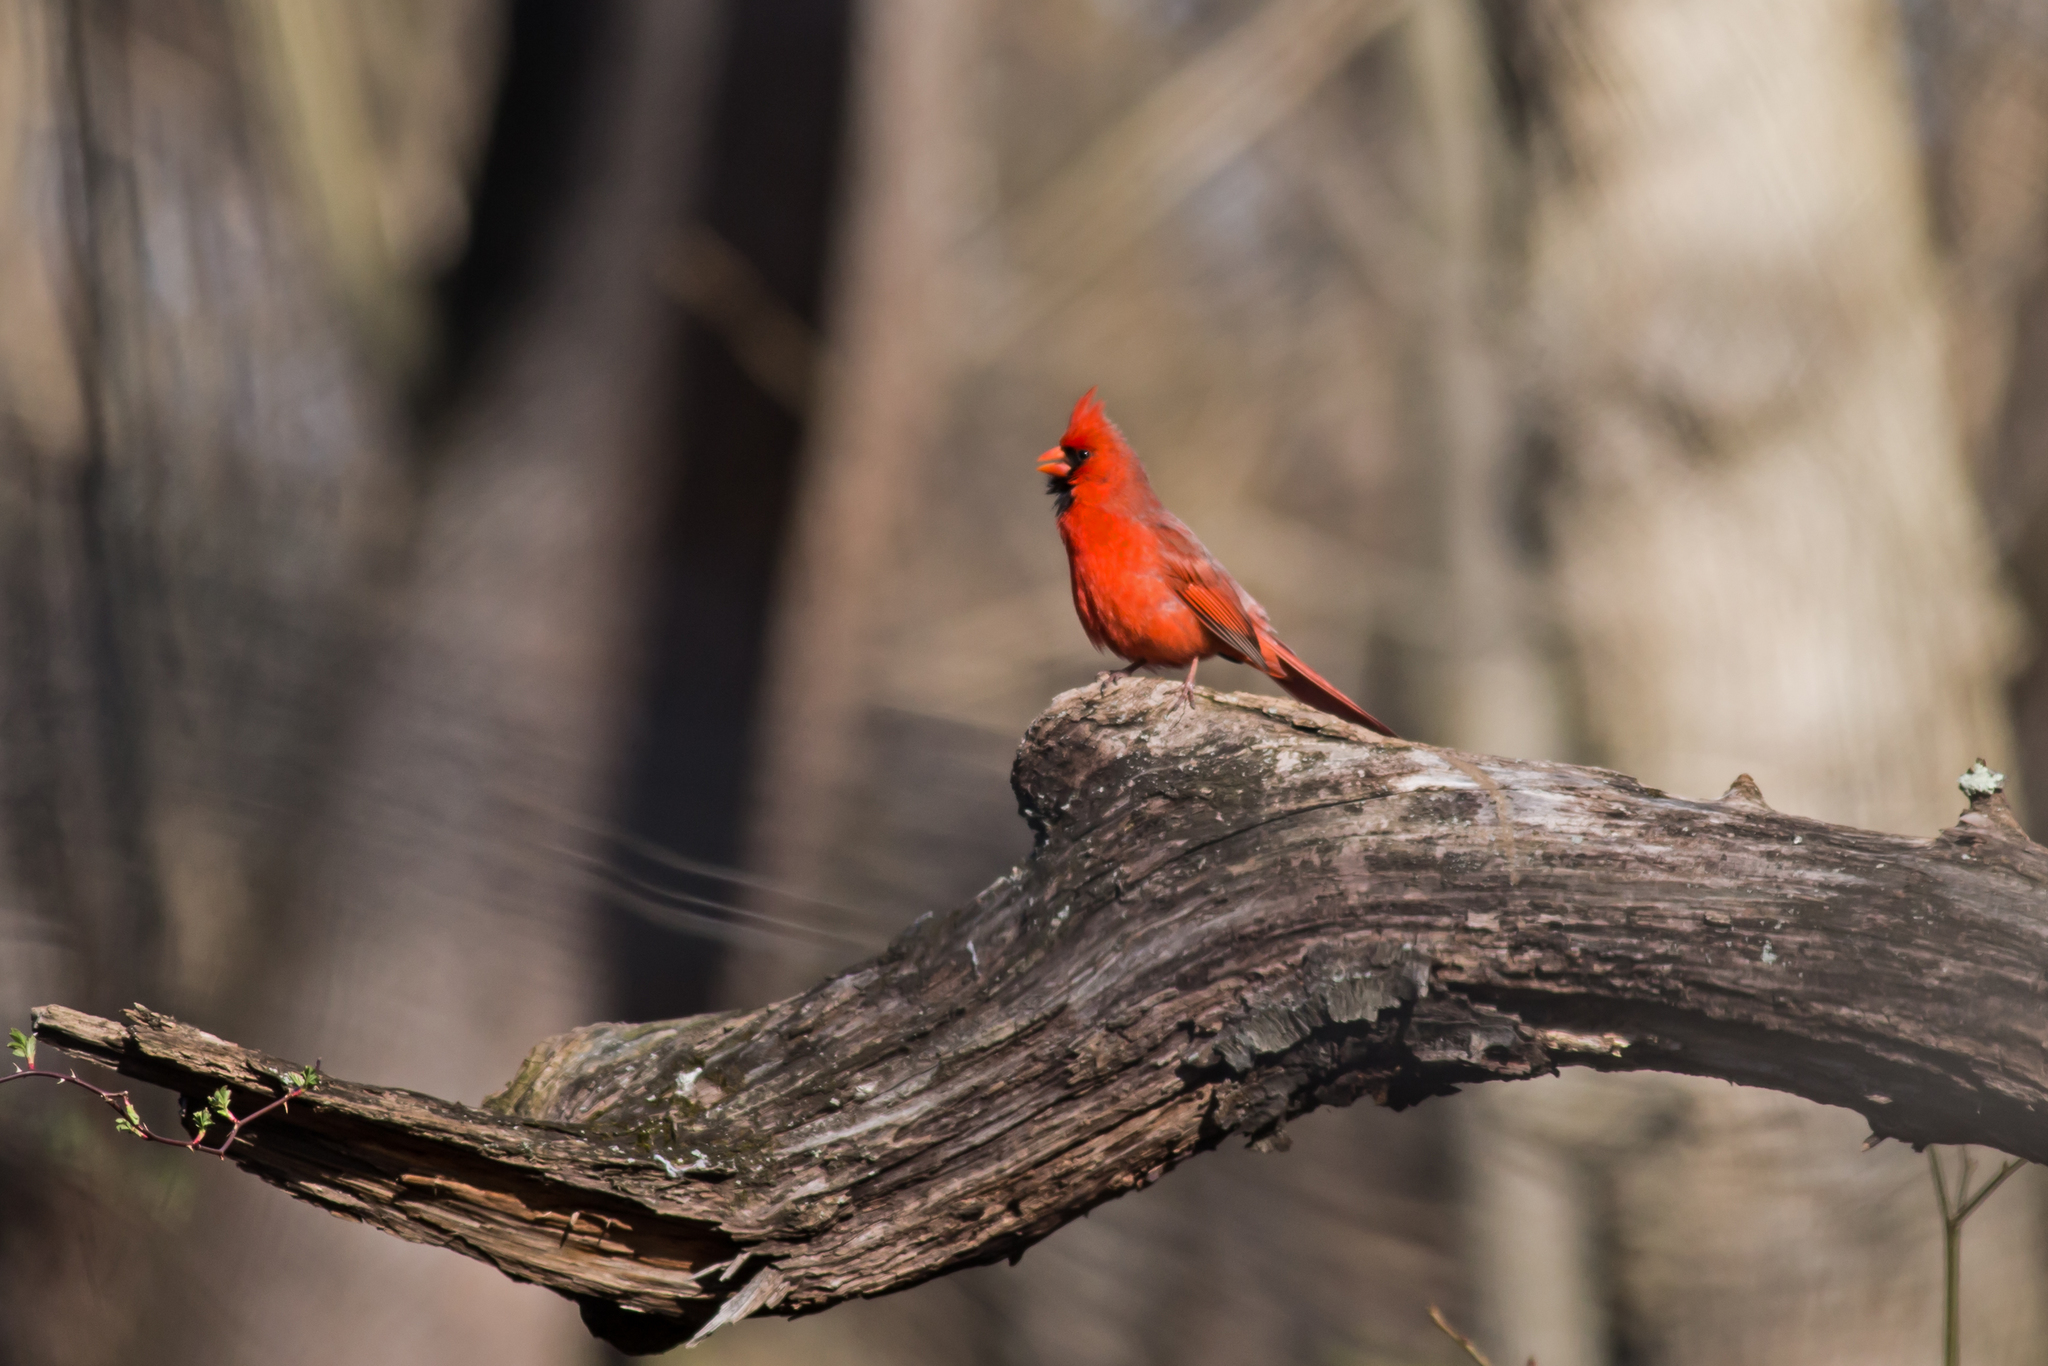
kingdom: Animalia
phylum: Chordata
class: Aves
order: Passeriformes
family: Cardinalidae
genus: Cardinalis
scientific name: Cardinalis cardinalis
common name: Northern cardinal
